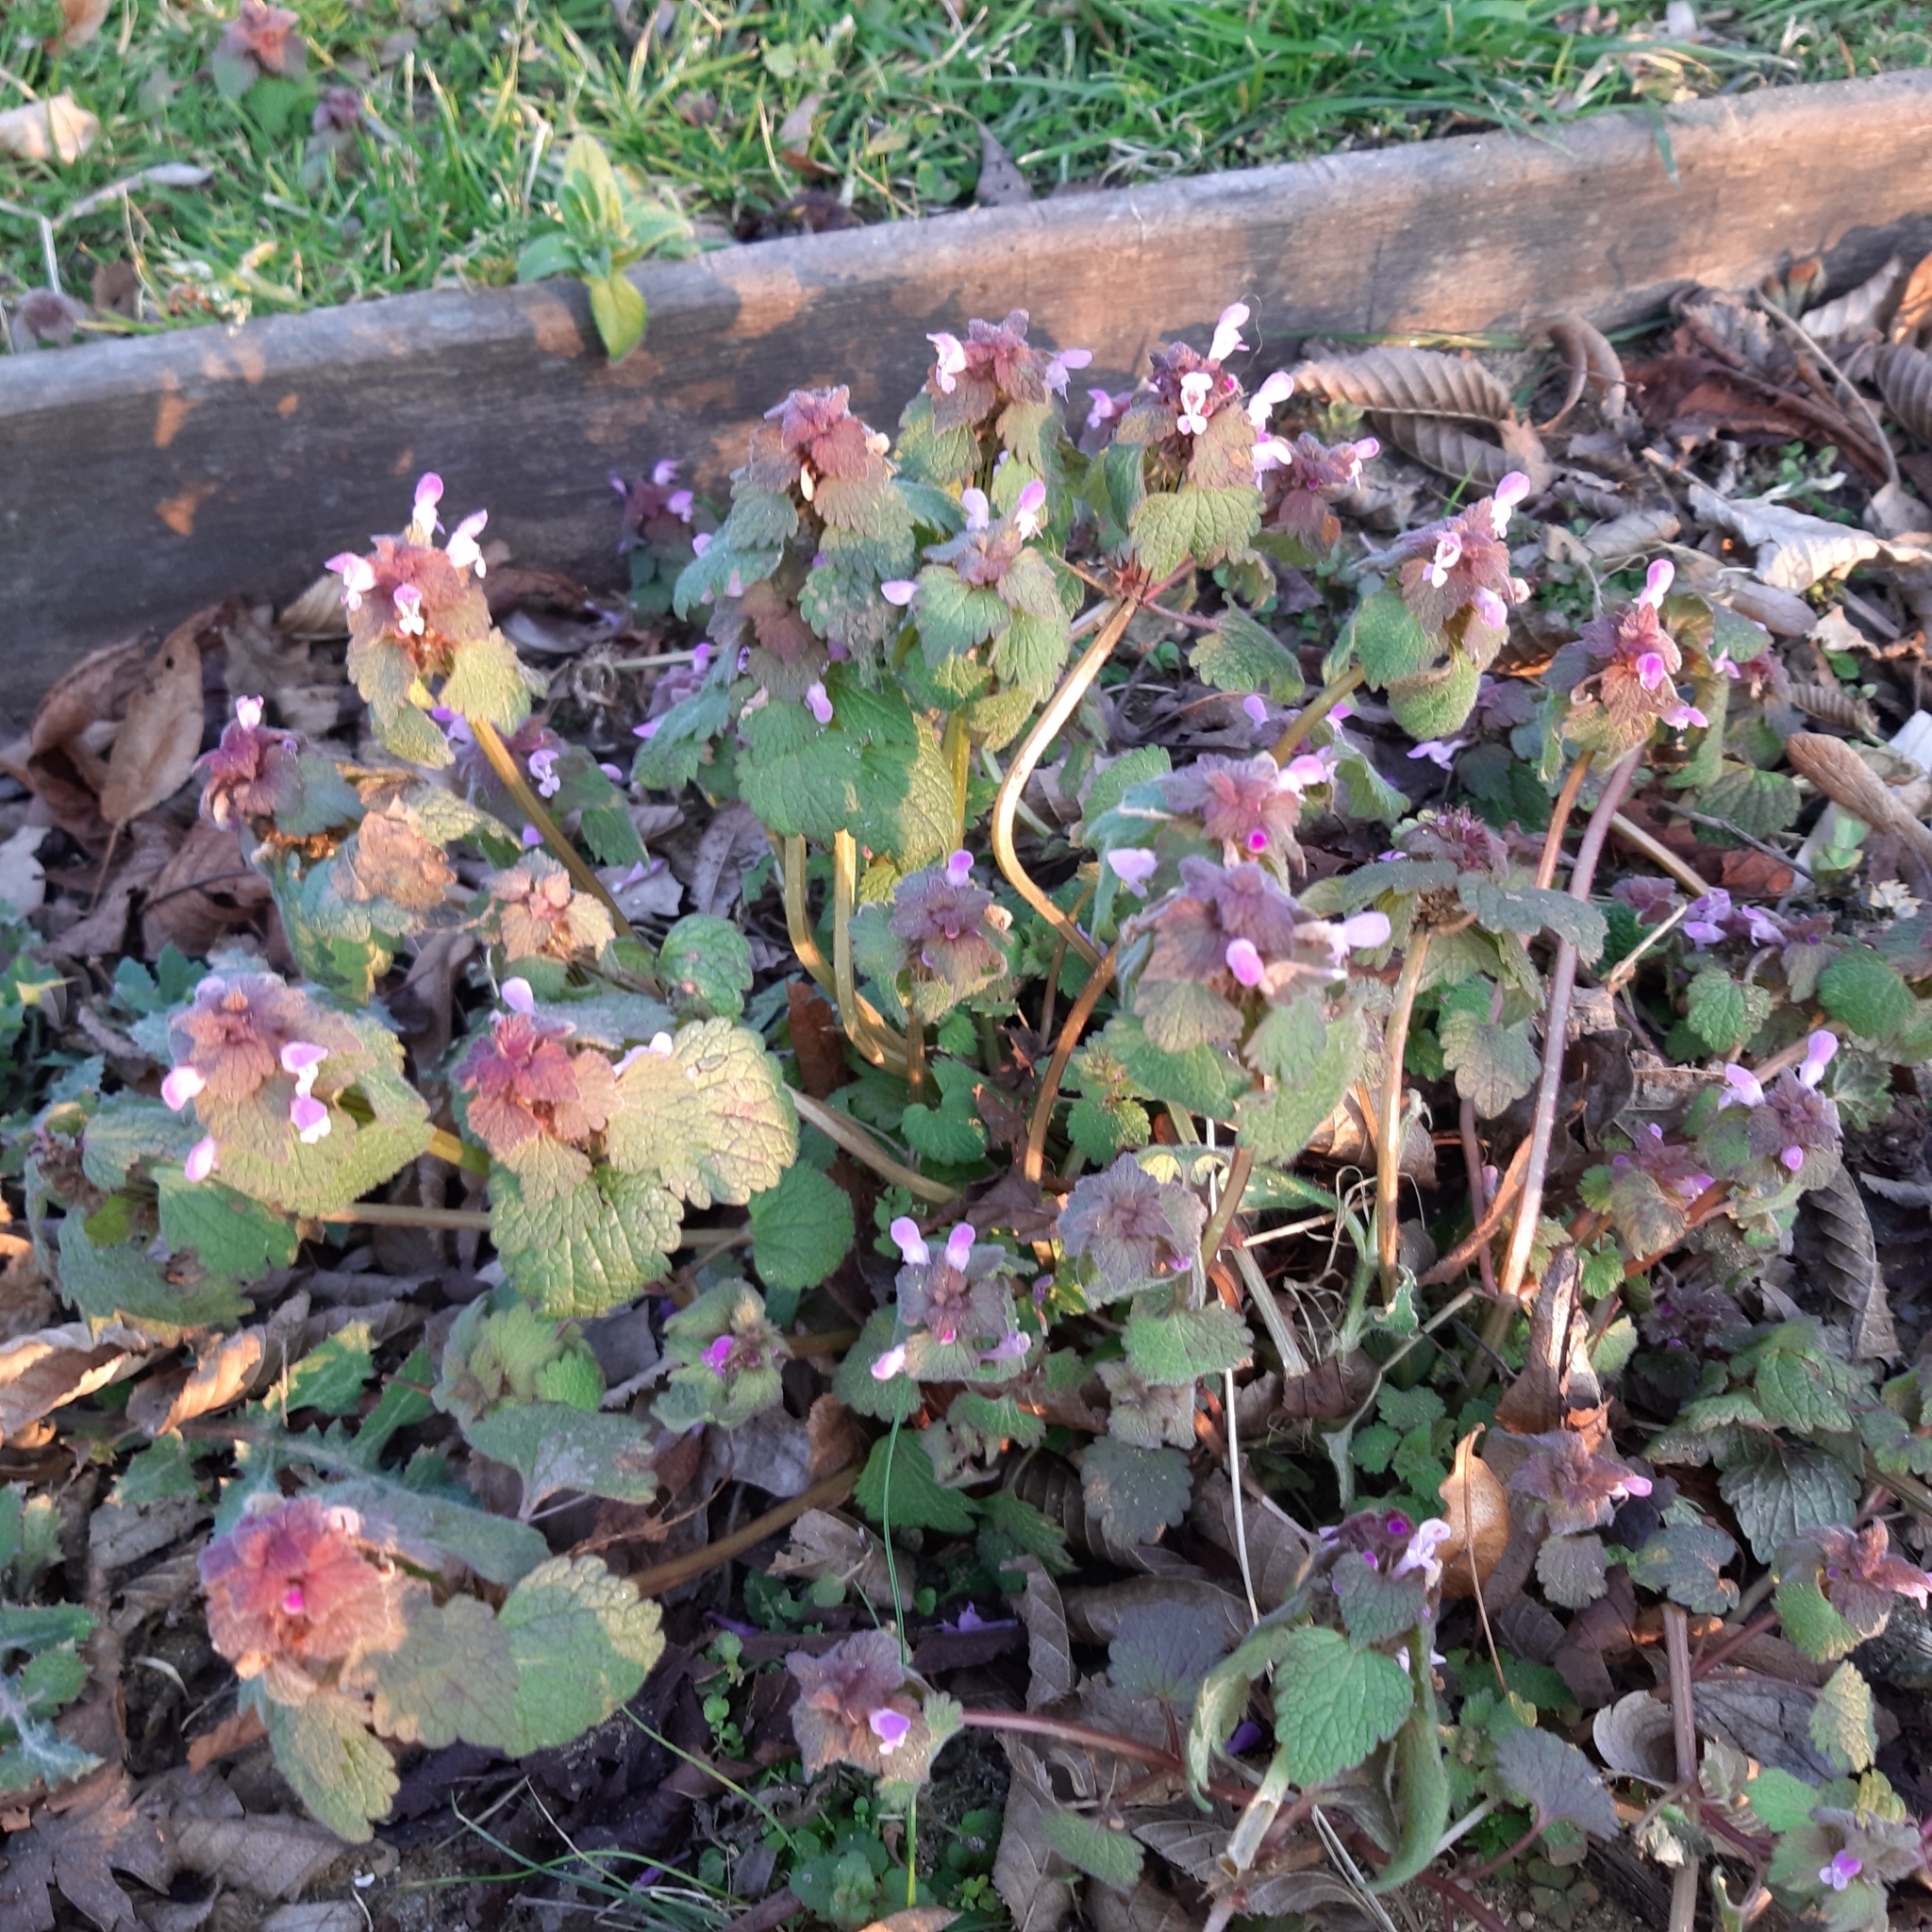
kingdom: Plantae
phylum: Tracheophyta
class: Magnoliopsida
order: Lamiales
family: Lamiaceae
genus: Lamium
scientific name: Lamium purpureum
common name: Red dead-nettle
